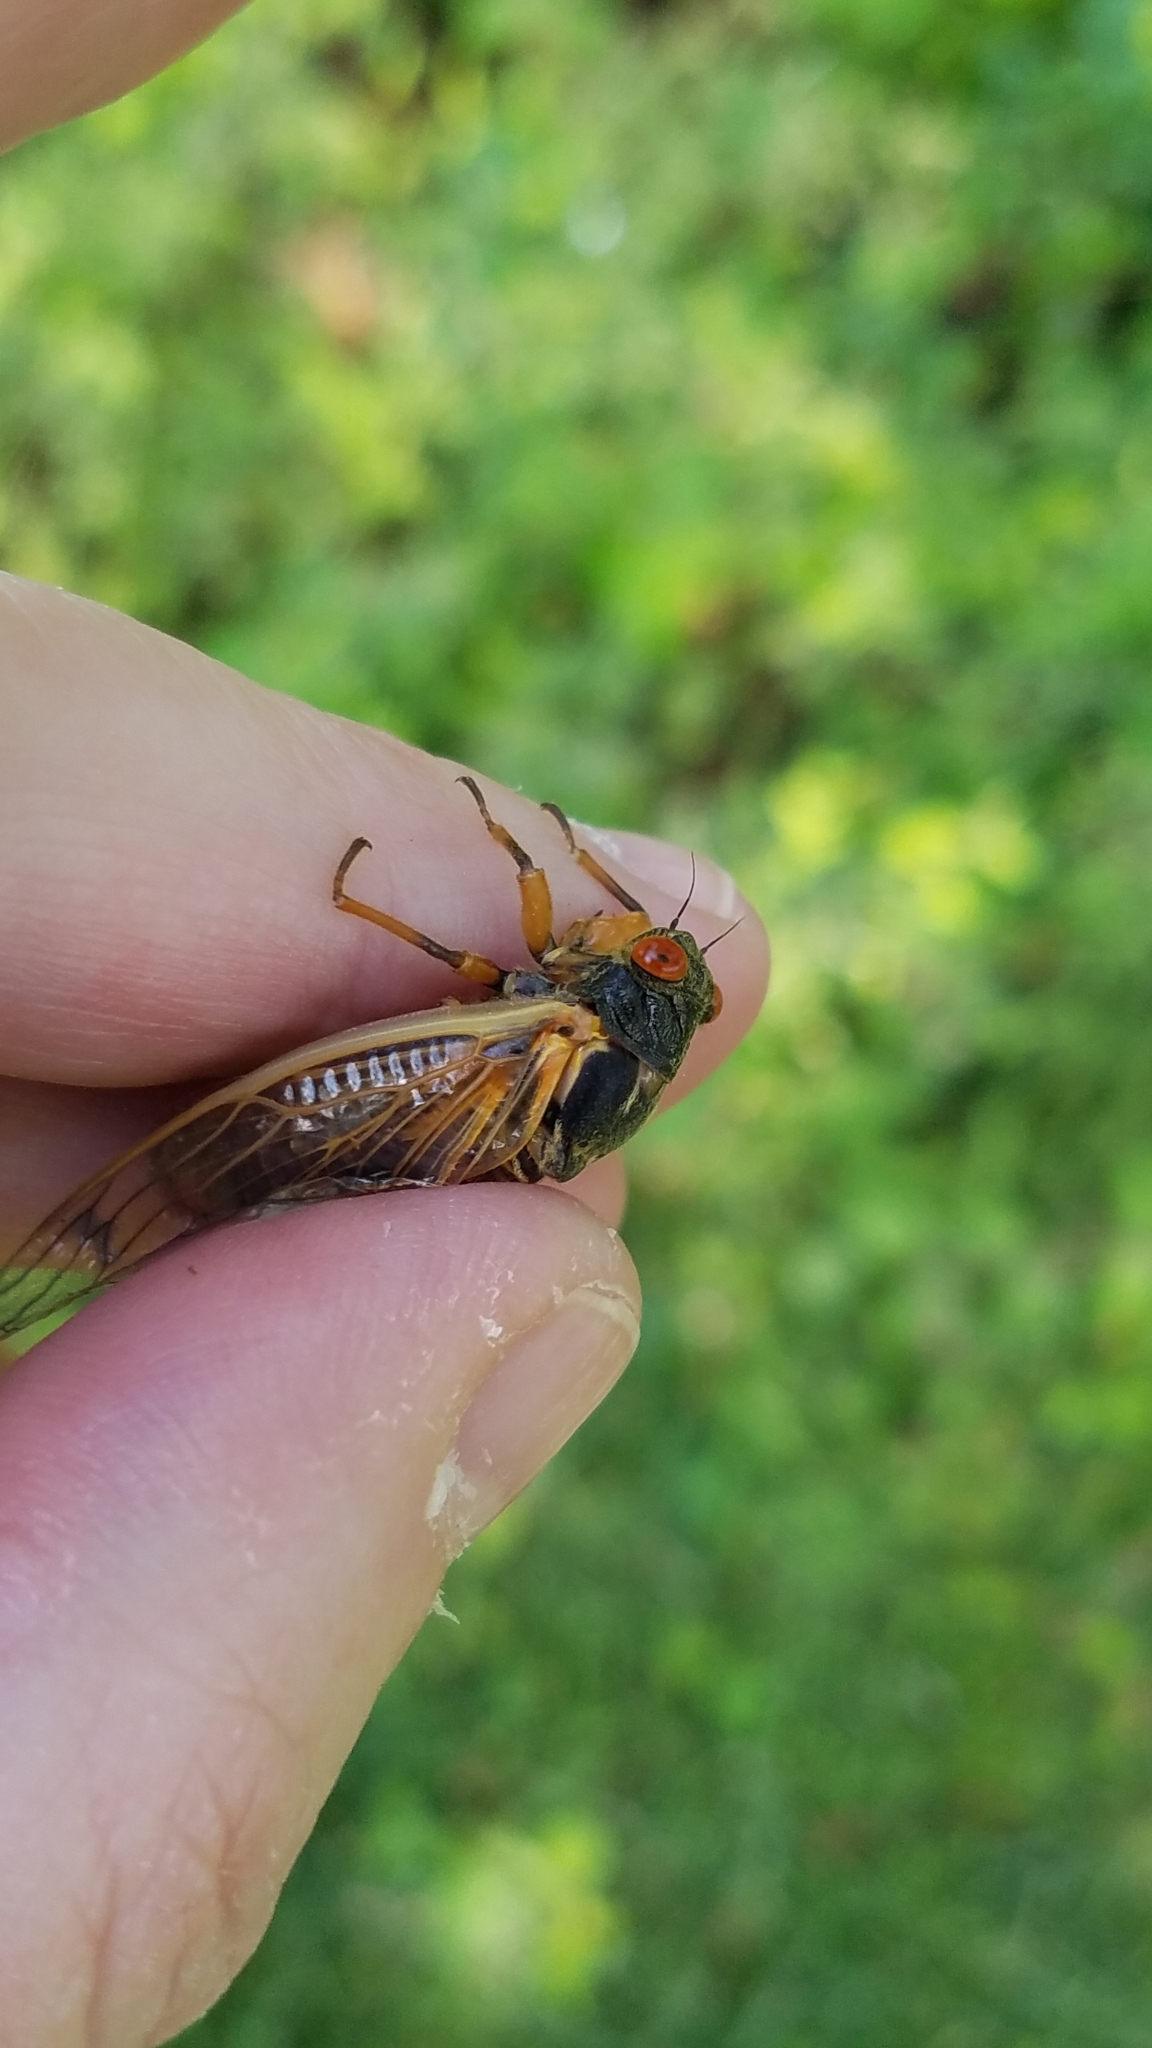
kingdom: Animalia
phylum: Arthropoda
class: Insecta
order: Hemiptera
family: Cicadidae
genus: Magicicada
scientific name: Magicicada cassini
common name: Cassin's 17-year cicada
